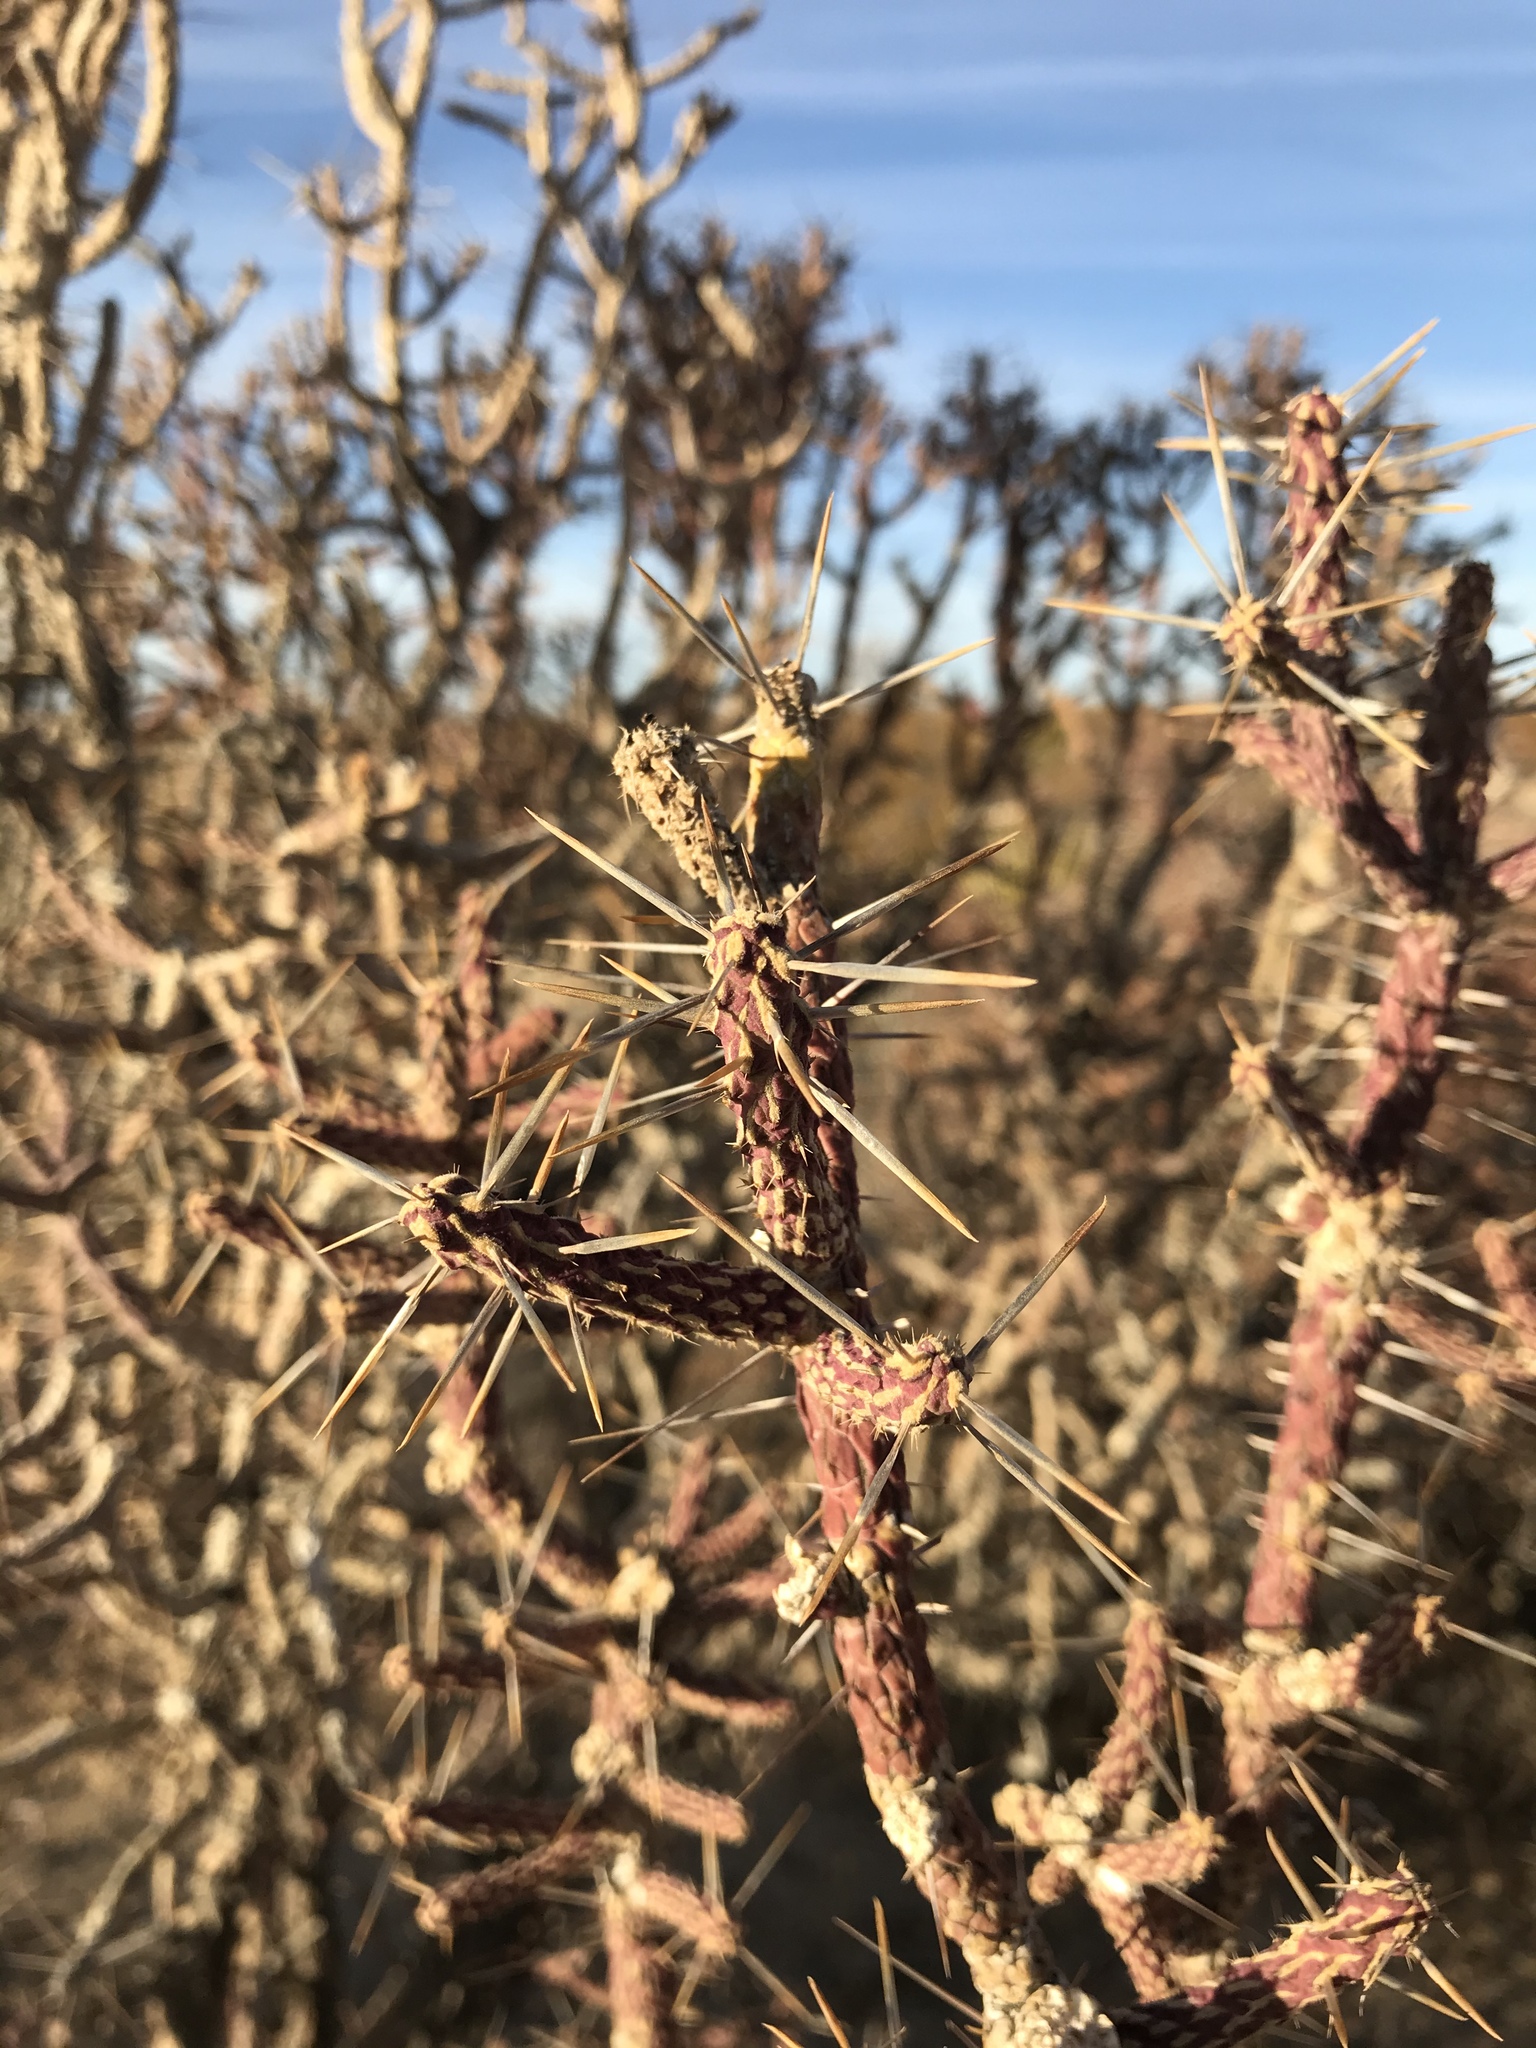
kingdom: Plantae
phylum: Tracheophyta
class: Magnoliopsida
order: Caryophyllales
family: Cactaceae
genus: Cylindropuntia
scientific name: Cylindropuntia ramosissima
